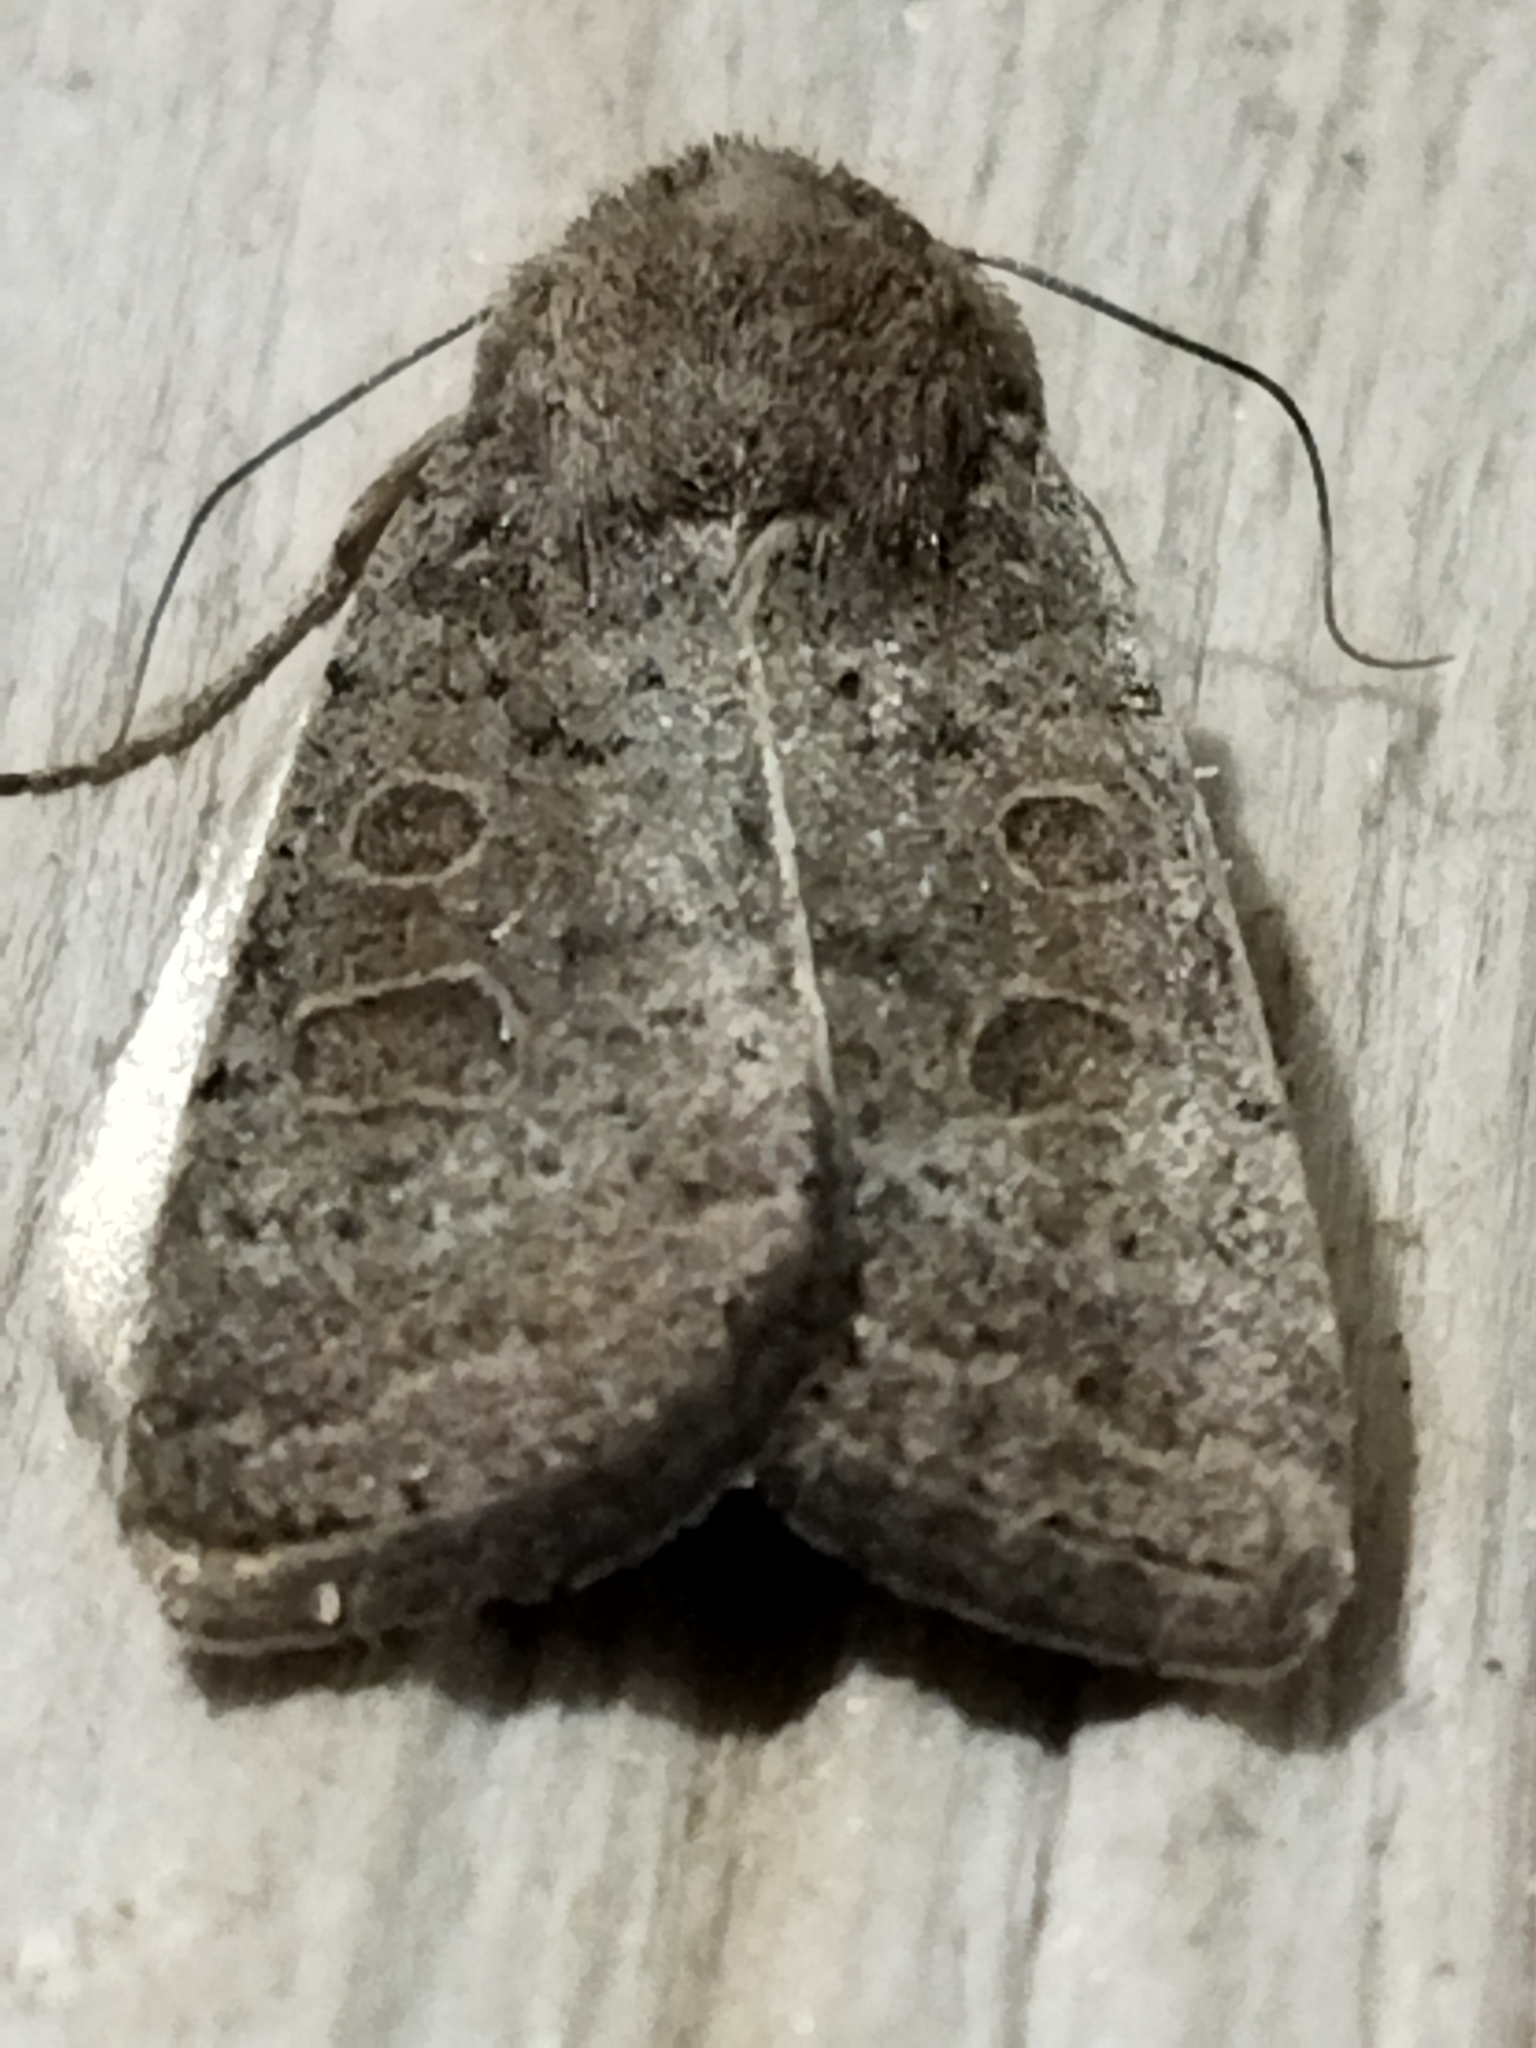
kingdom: Animalia
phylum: Arthropoda
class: Insecta
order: Lepidoptera
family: Noctuidae
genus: Hoplodrina
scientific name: Hoplodrina ambigua
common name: Vine's rustic
